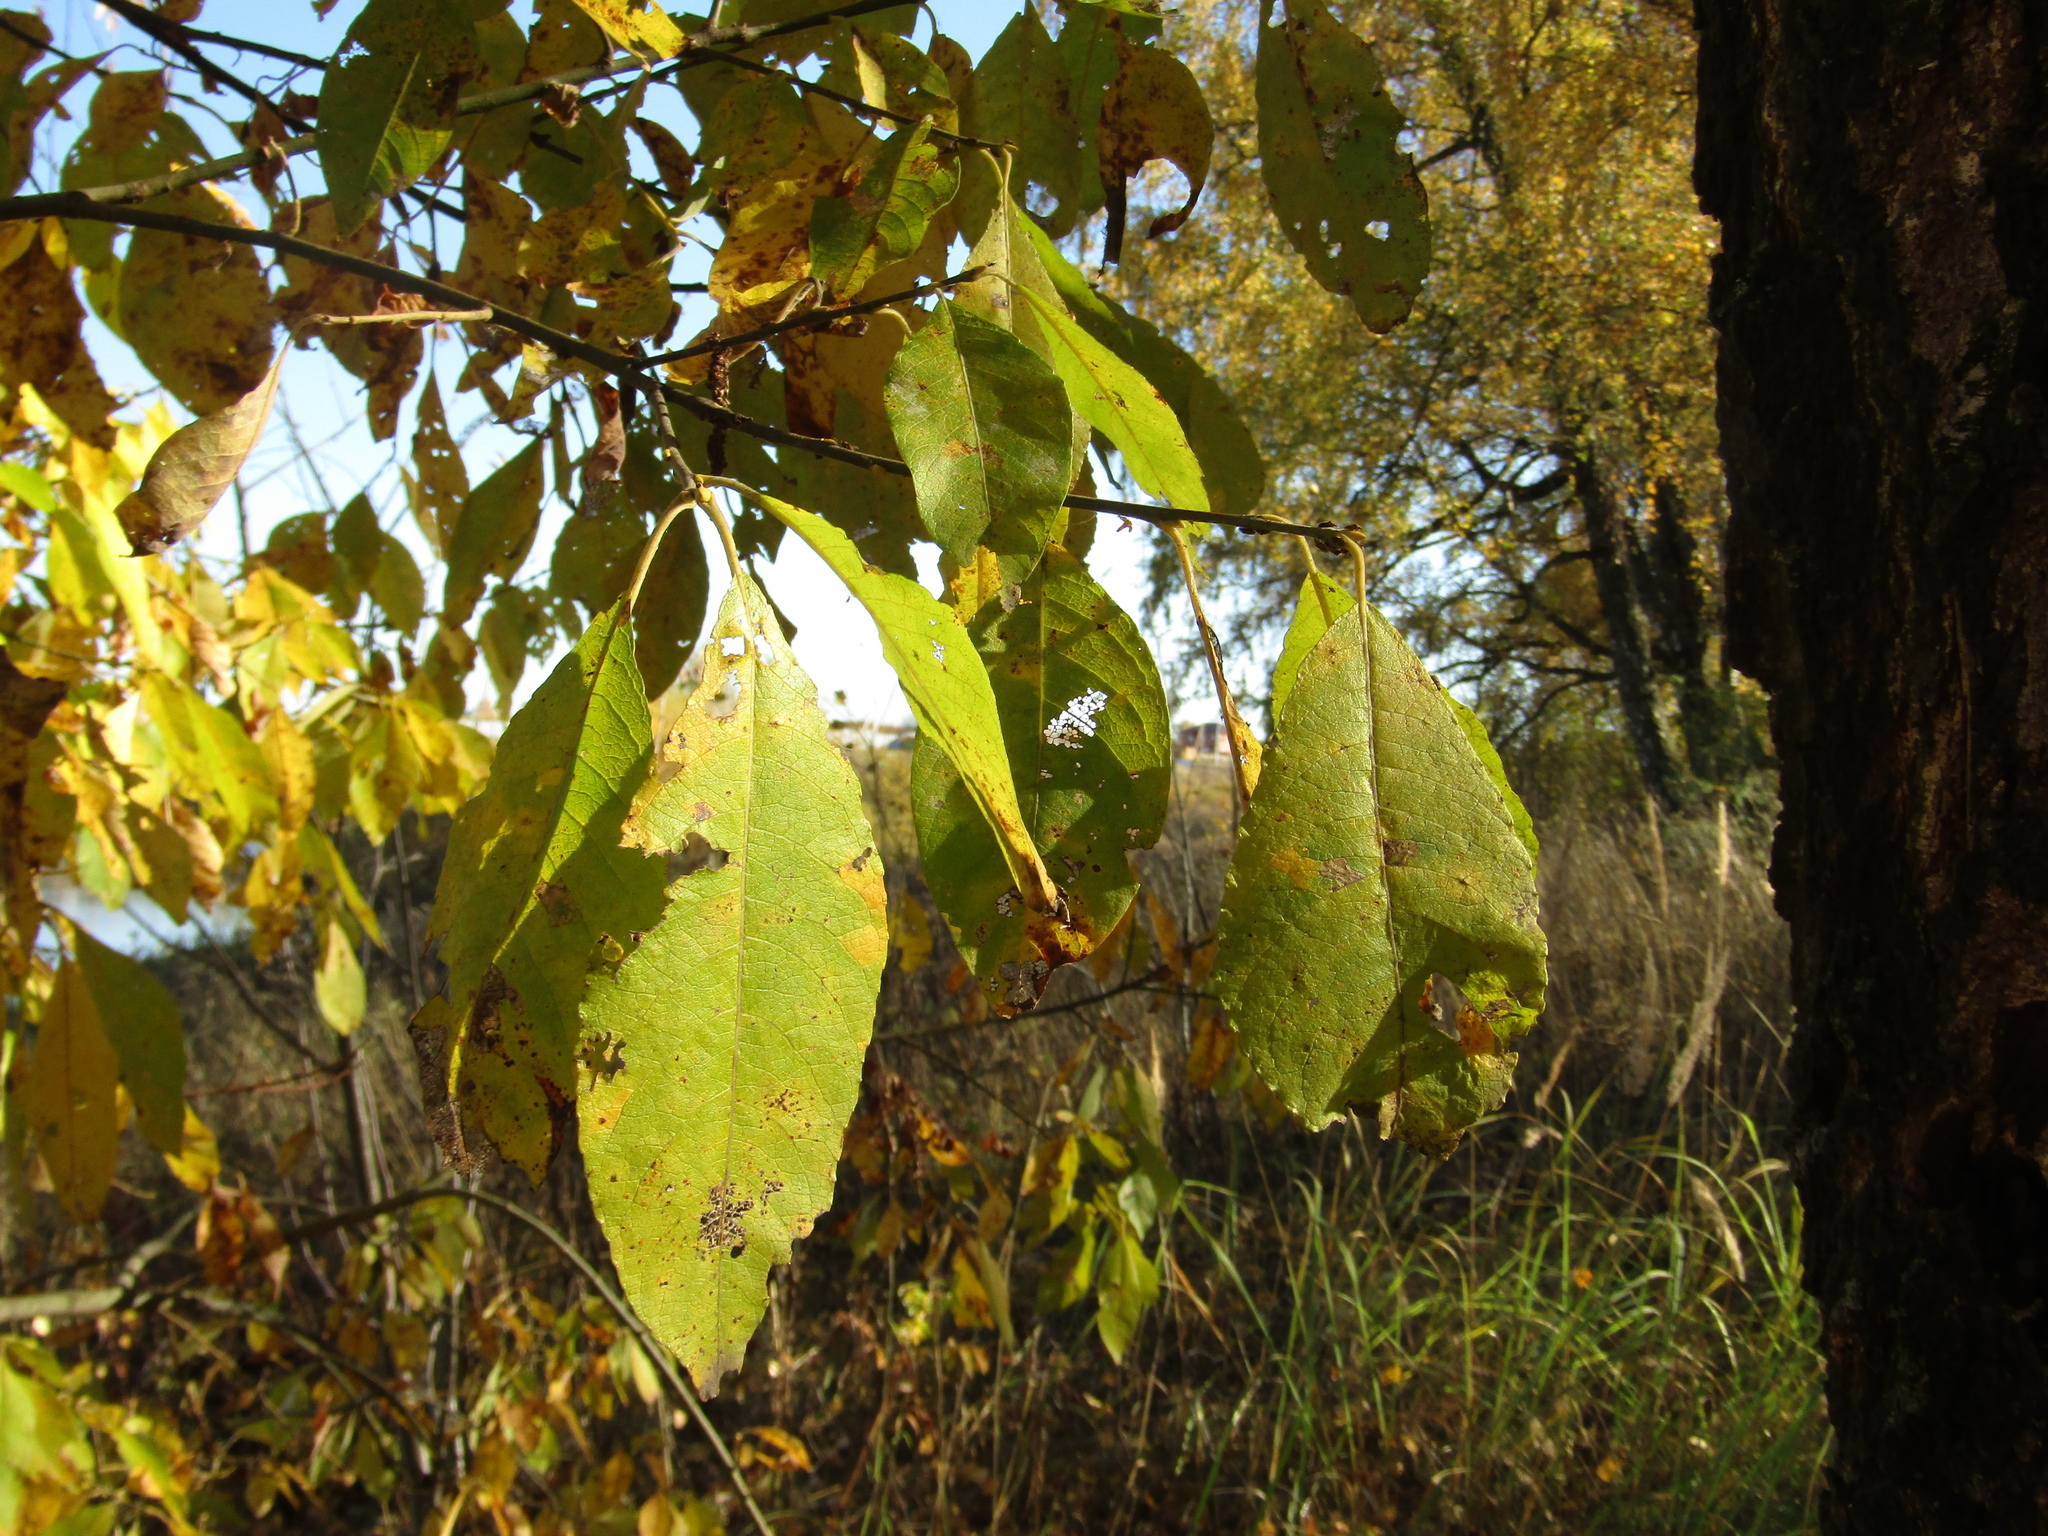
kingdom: Plantae
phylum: Tracheophyta
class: Magnoliopsida
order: Malpighiales
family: Salicaceae
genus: Salix
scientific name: Salix caprea
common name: Goat willow
